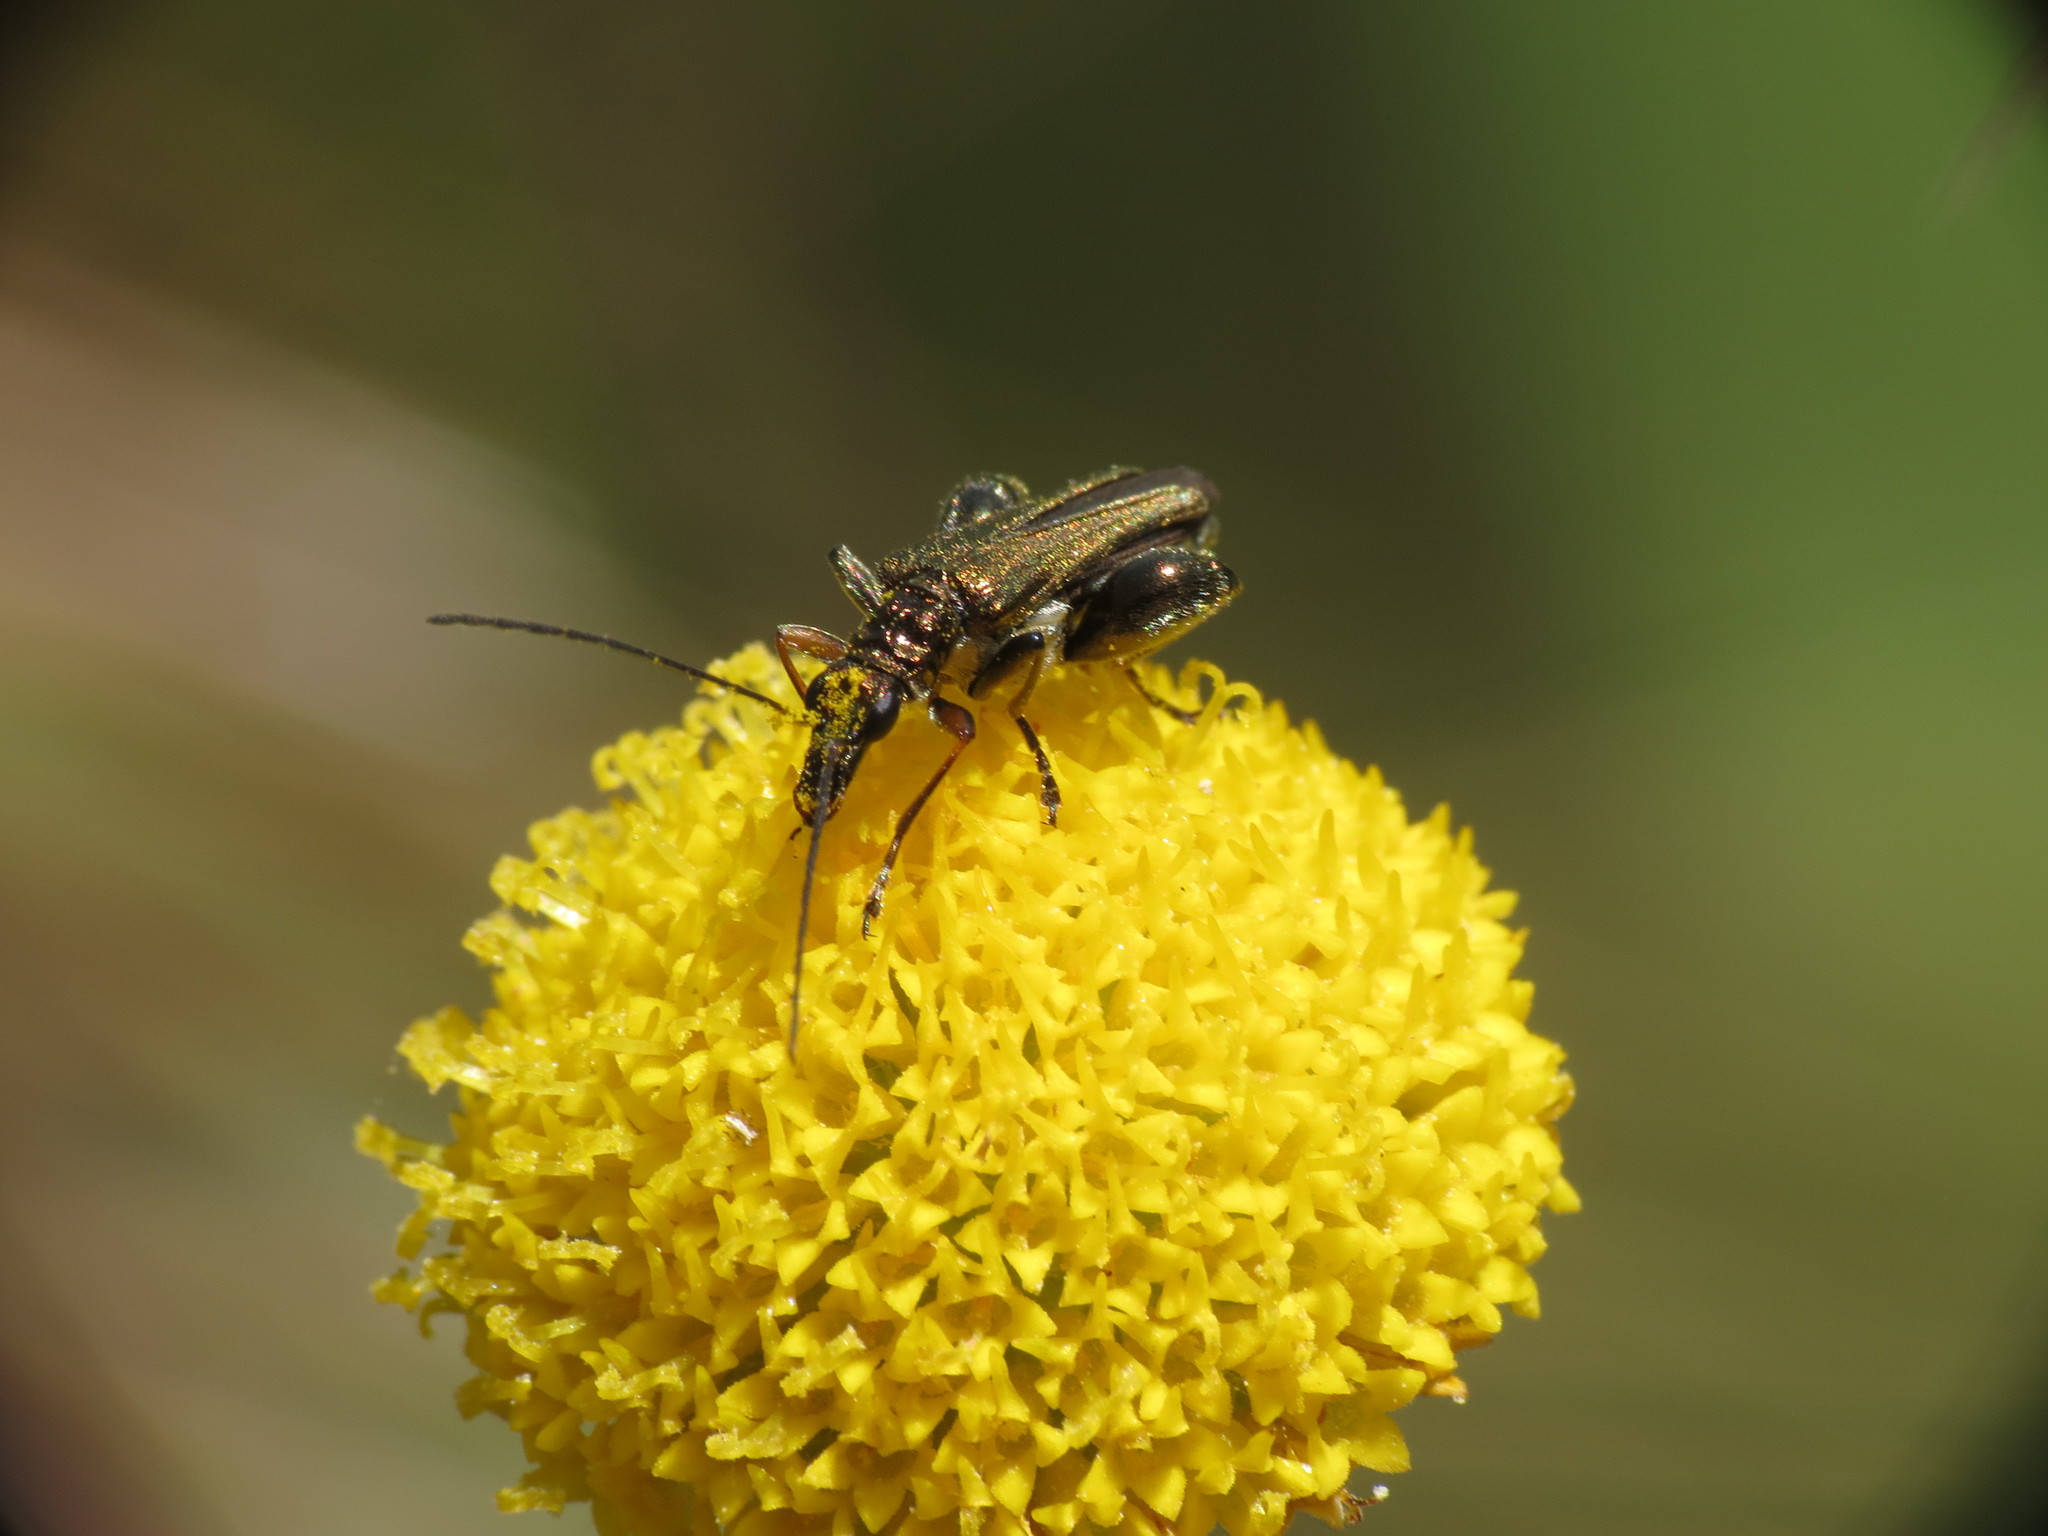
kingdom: Animalia
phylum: Arthropoda
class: Insecta
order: Coleoptera
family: Oedemeridae
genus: Oedemera
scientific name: Oedemera flavipes
